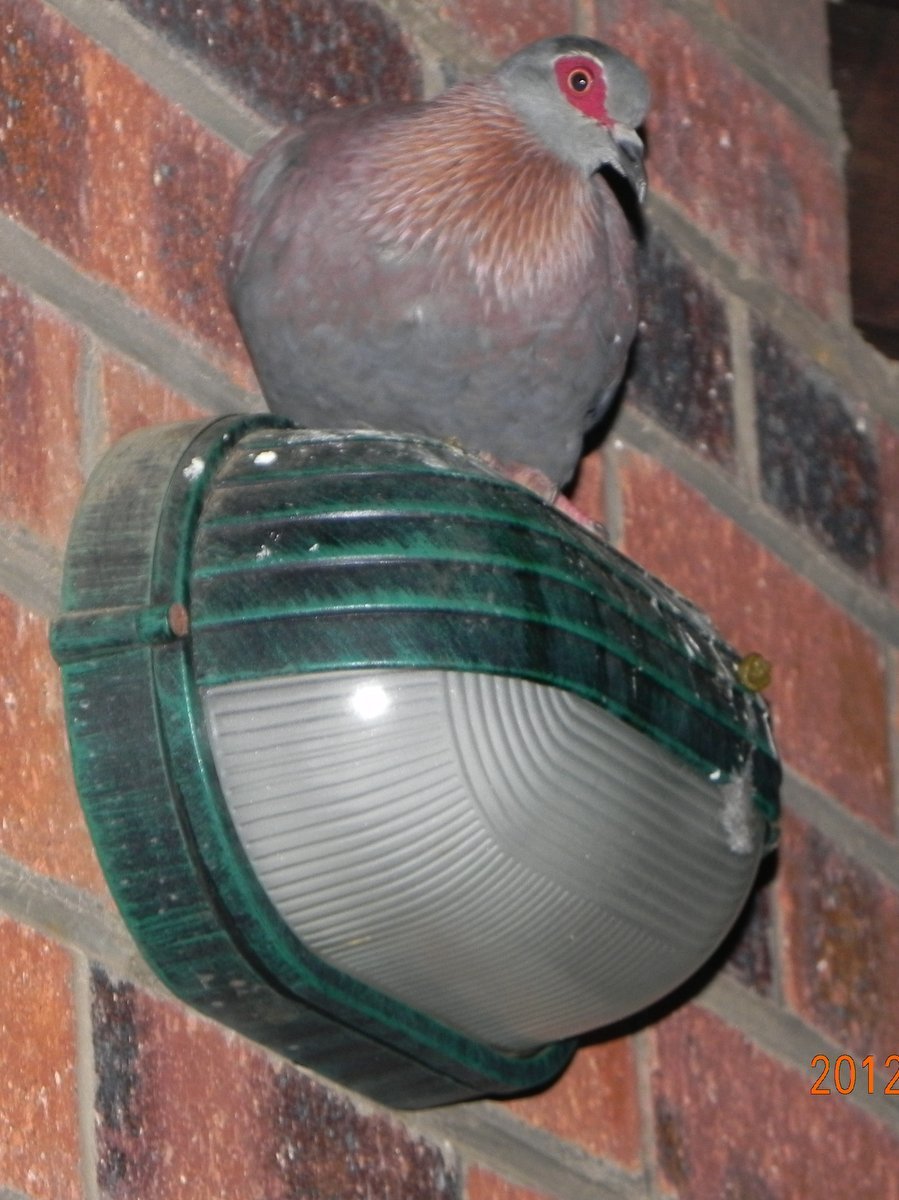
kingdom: Animalia
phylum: Chordata
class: Aves
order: Columbiformes
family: Columbidae
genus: Columba
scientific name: Columba guinea
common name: Speckled pigeon
